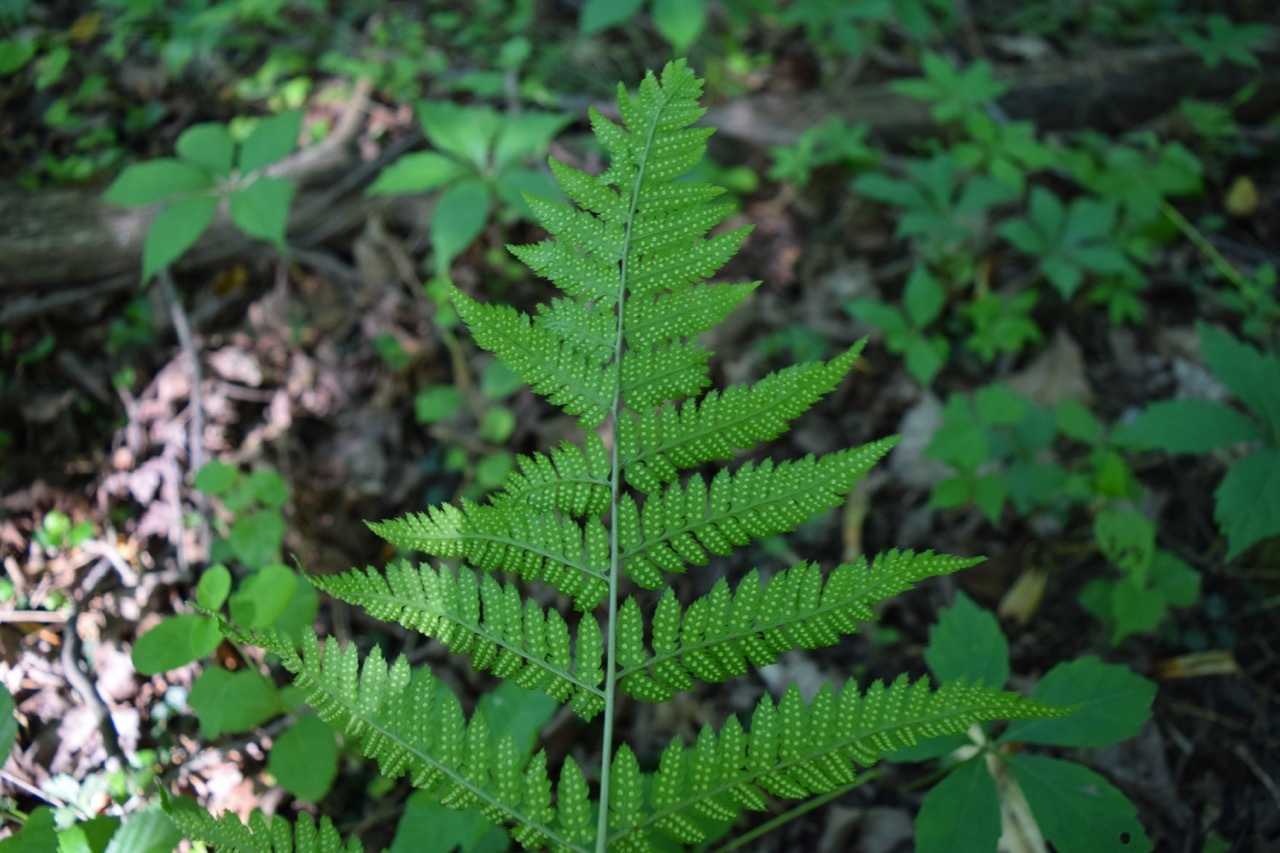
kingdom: Plantae
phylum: Tracheophyta
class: Polypodiopsida
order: Polypodiales
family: Dryopteridaceae
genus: Dryopteris
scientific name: Dryopteris carthusiana
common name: Narrow buckler-fern
